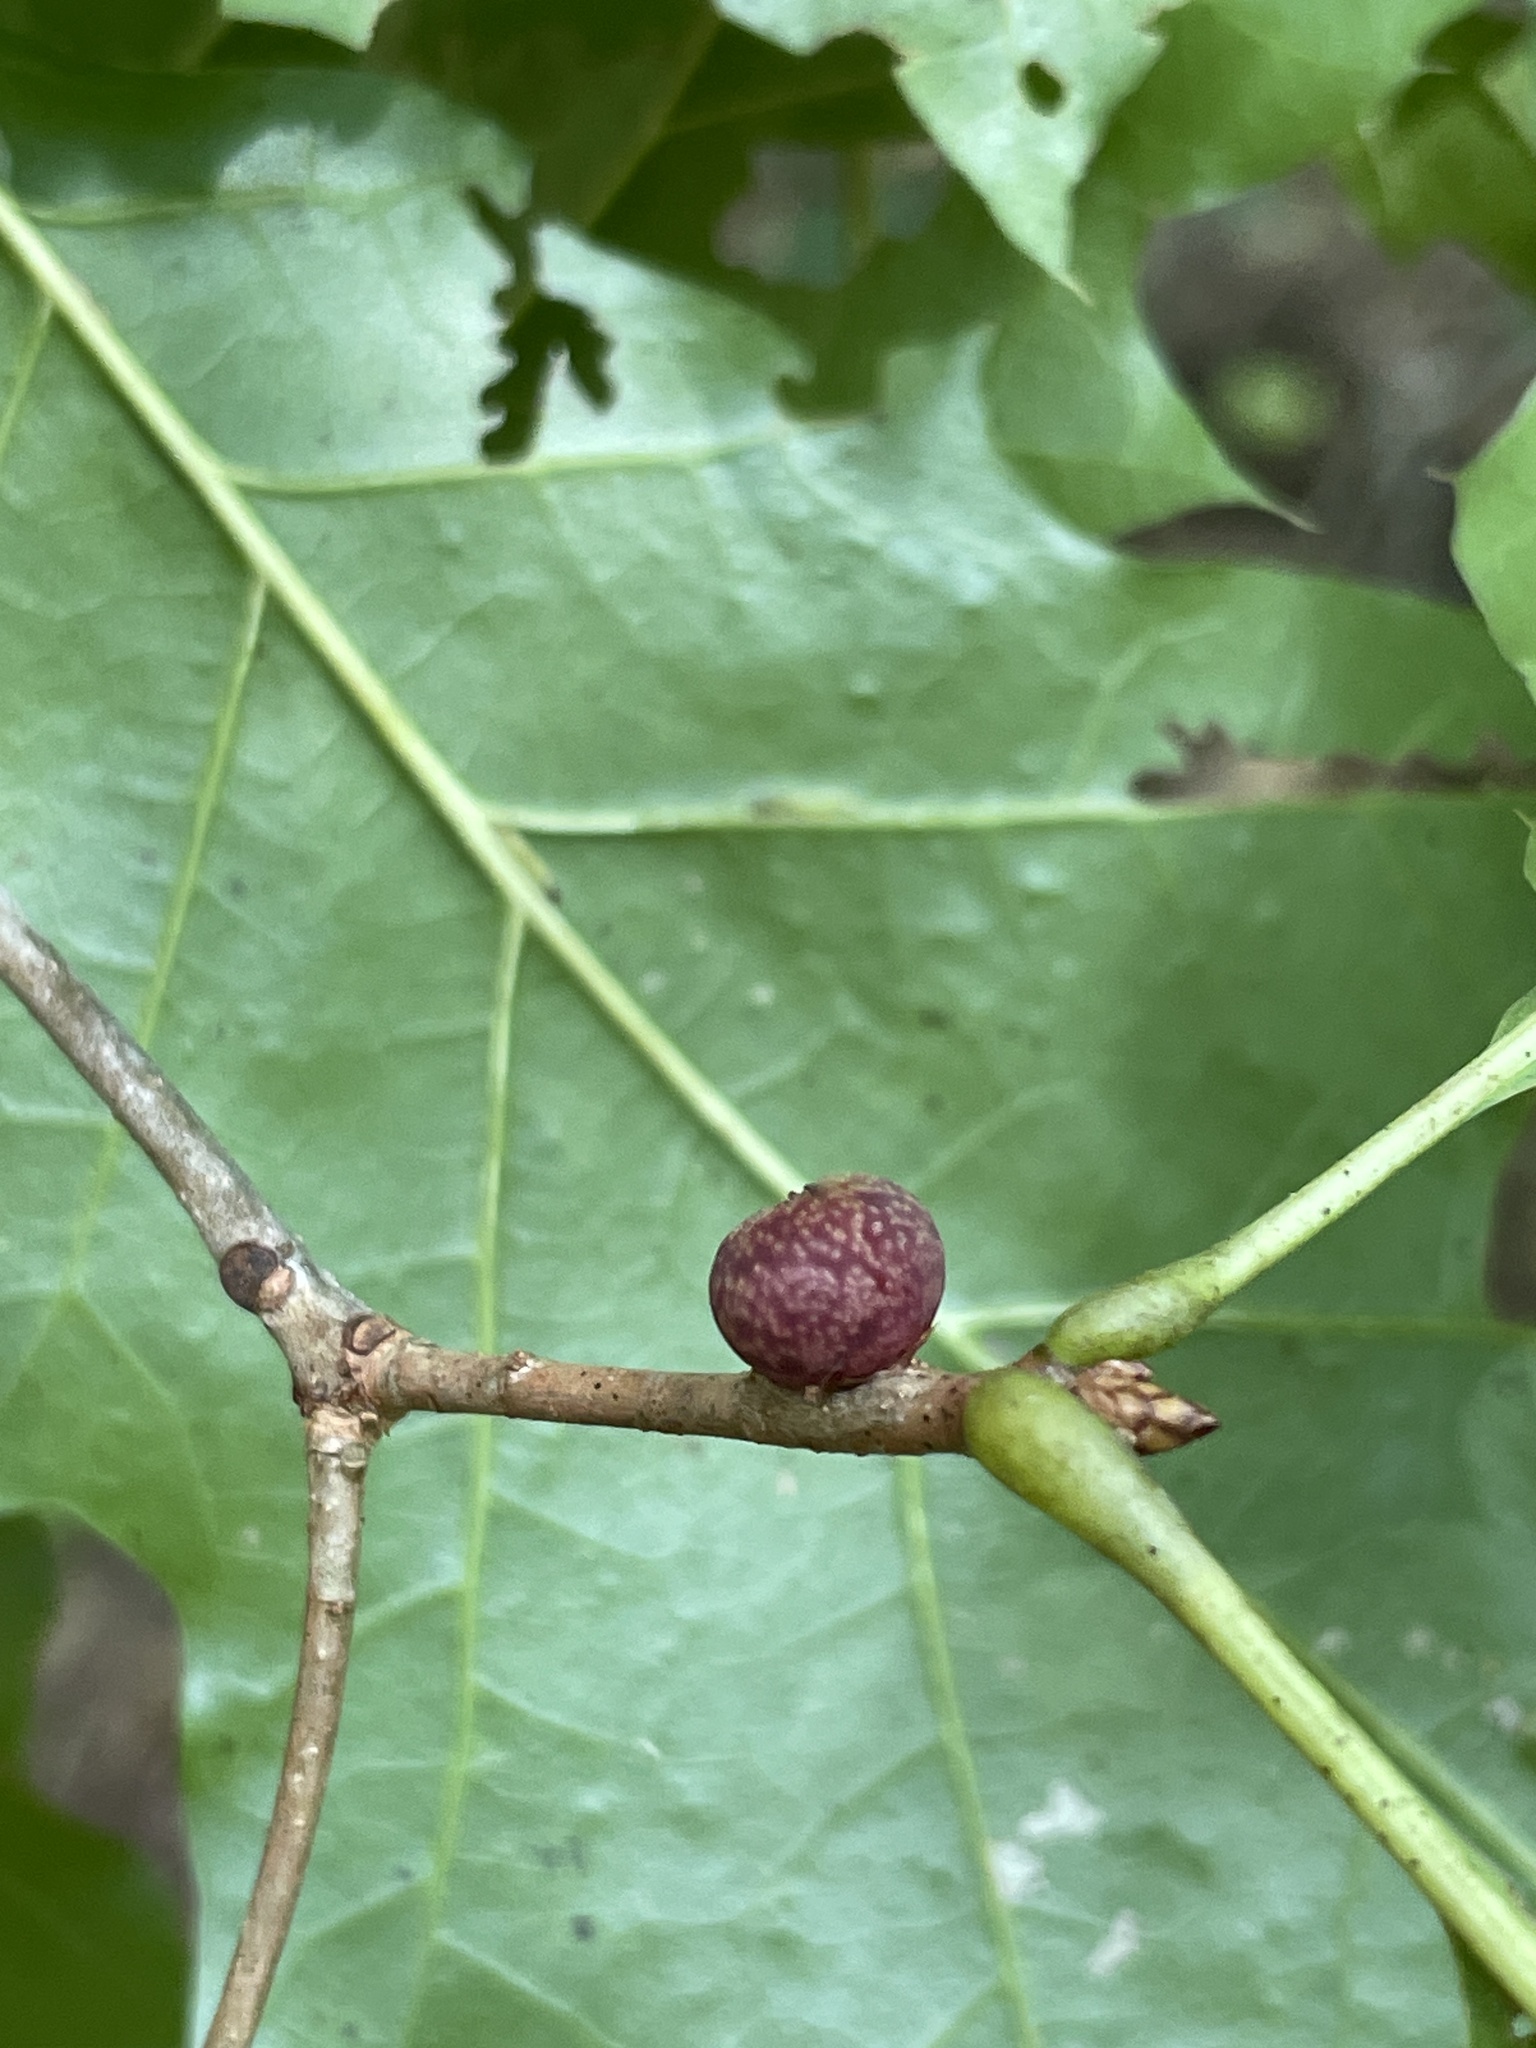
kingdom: Animalia
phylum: Arthropoda
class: Insecta
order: Hymenoptera
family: Cynipidae
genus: Kokkocynips
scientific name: Kokkocynips imbricariae
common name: Banded bullet gall wasp
